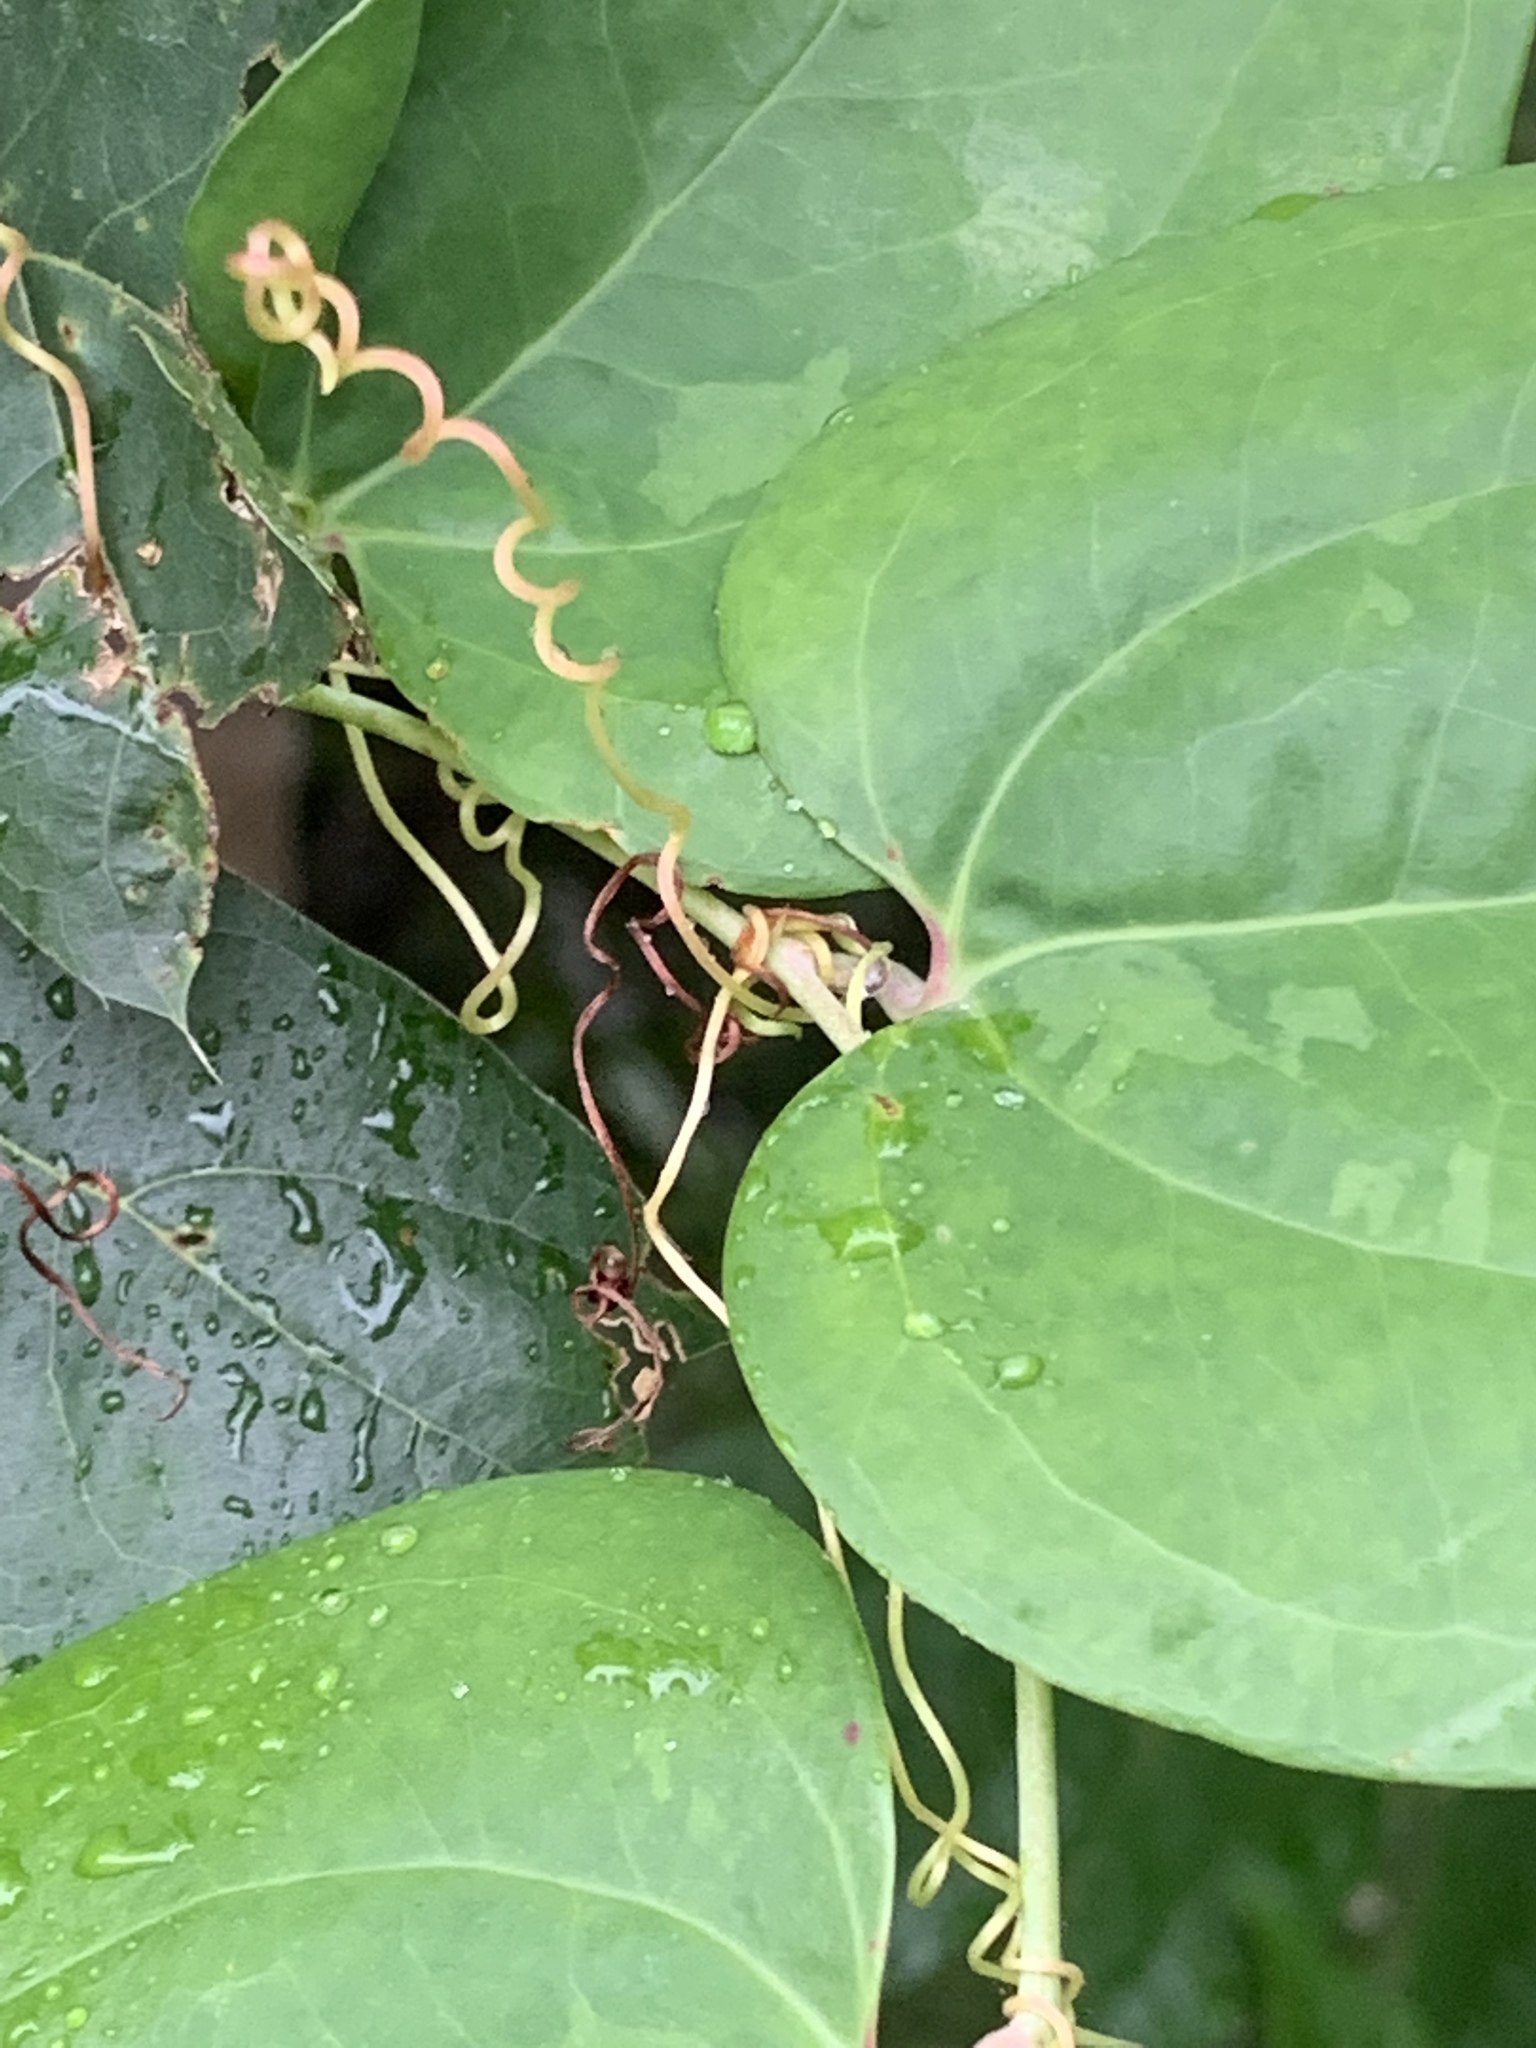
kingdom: Plantae
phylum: Tracheophyta
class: Liliopsida
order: Liliales
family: Smilacaceae
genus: Smilax
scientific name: Smilax glauca
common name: Cat greenbrier
